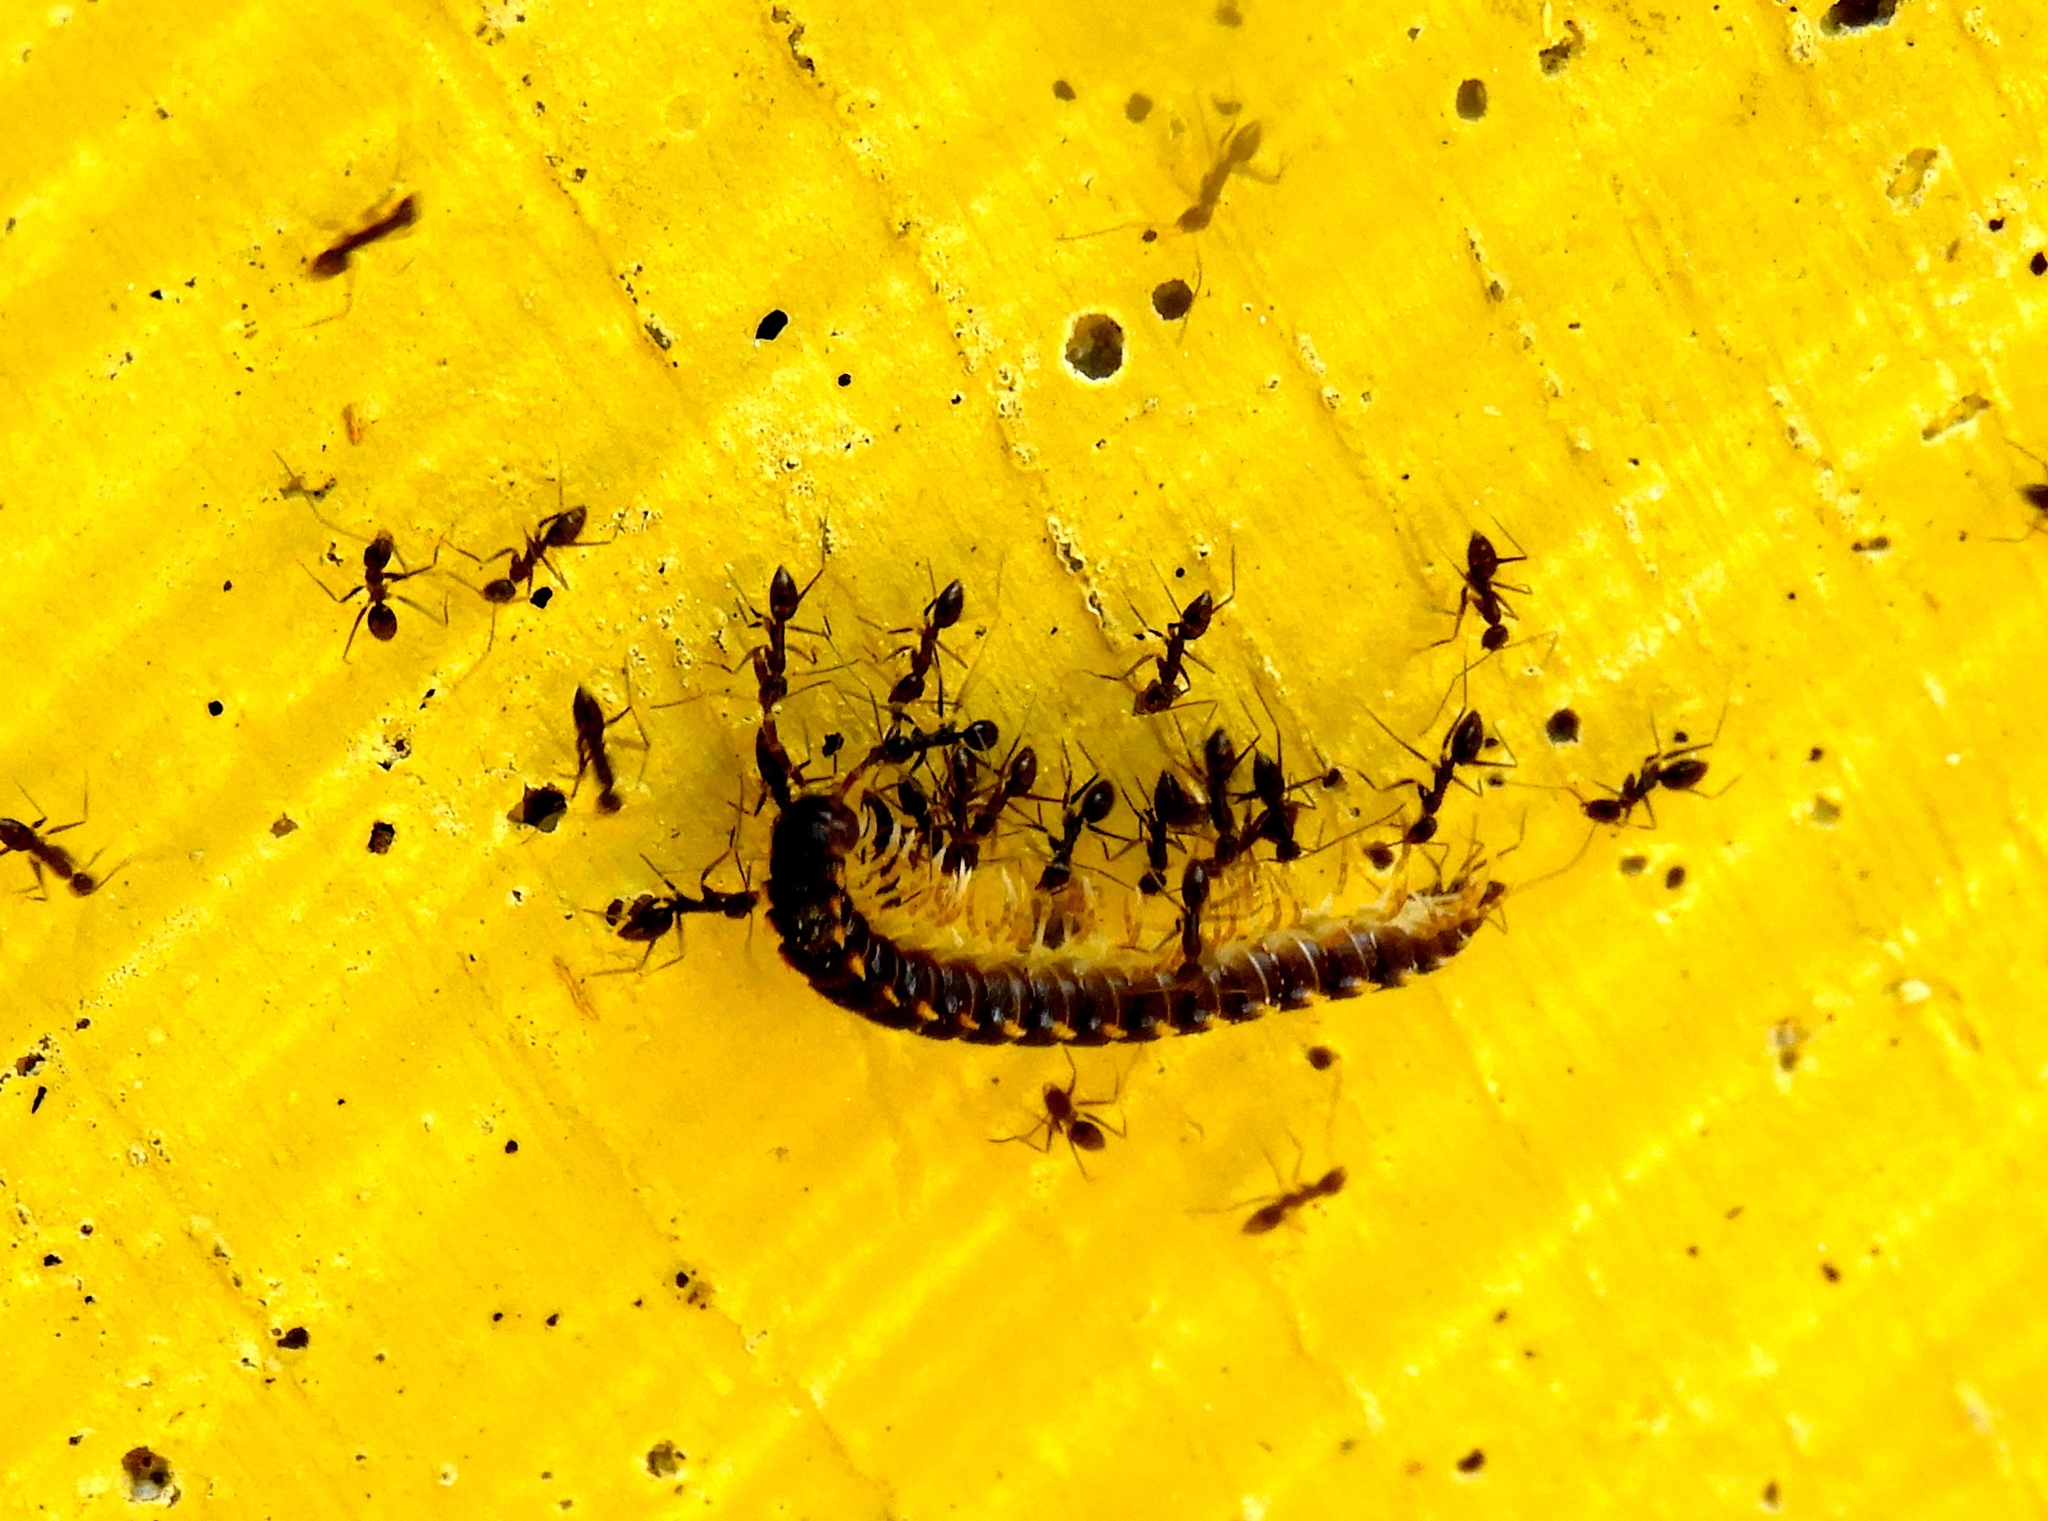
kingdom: Animalia
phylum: Arthropoda
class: Diplopoda
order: Polydesmida
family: Paradoxosomatidae
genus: Chondromorpha
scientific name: Chondromorpha xanthotricha
